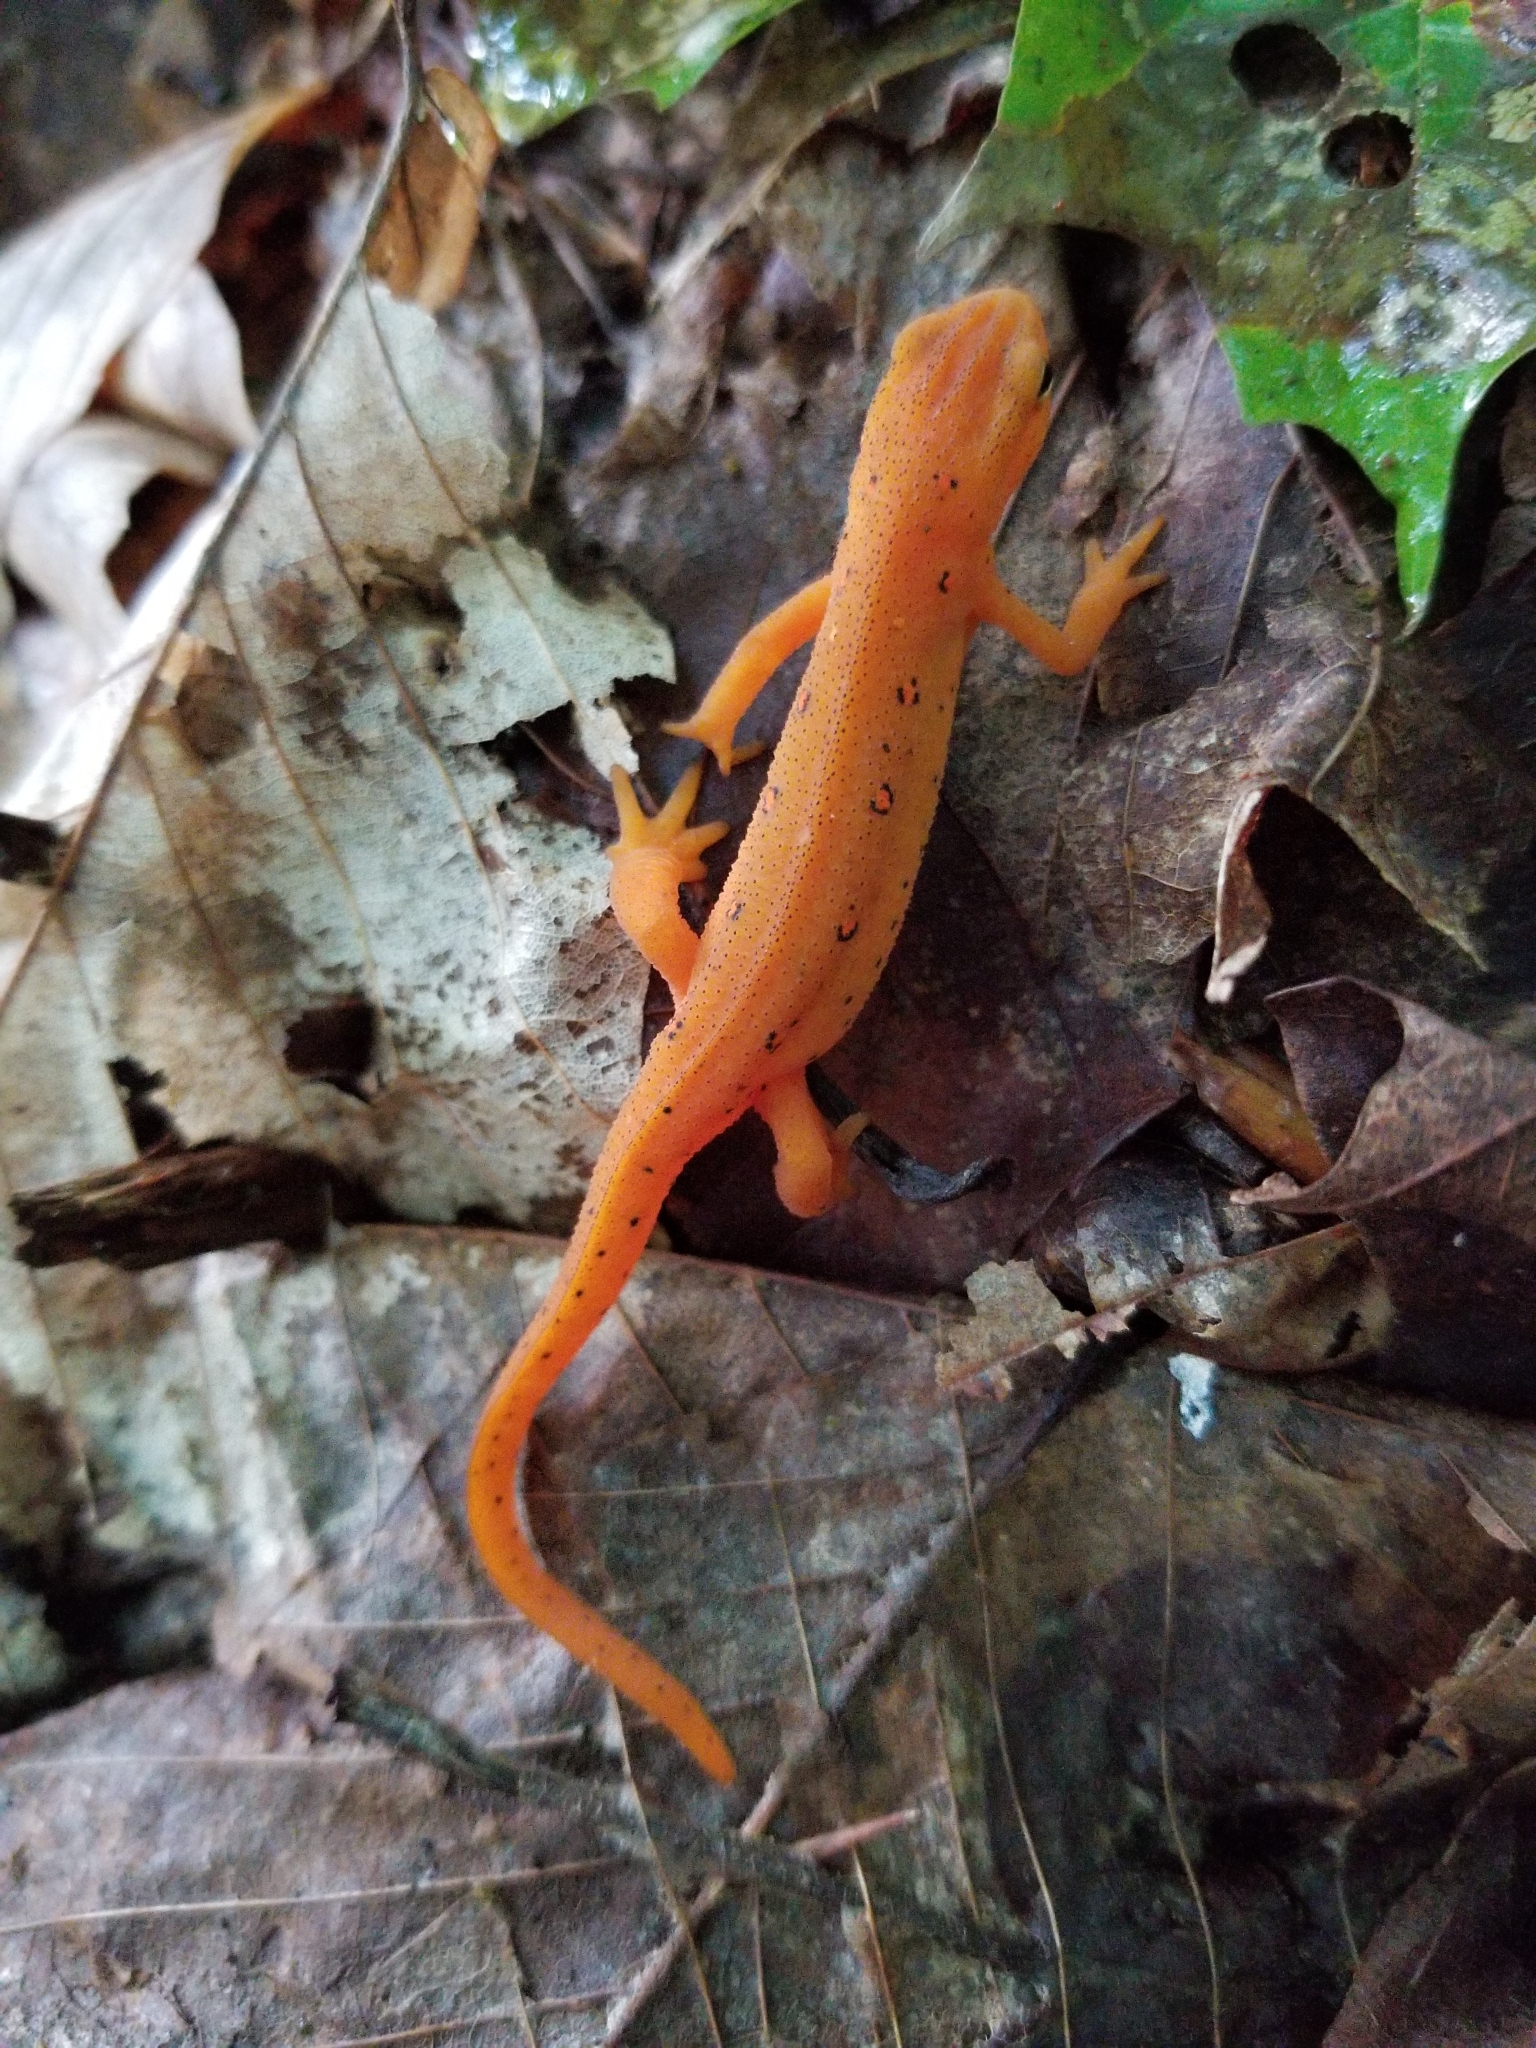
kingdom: Animalia
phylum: Chordata
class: Amphibia
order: Caudata
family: Salamandridae
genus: Notophthalmus
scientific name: Notophthalmus viridescens
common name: Eastern newt
